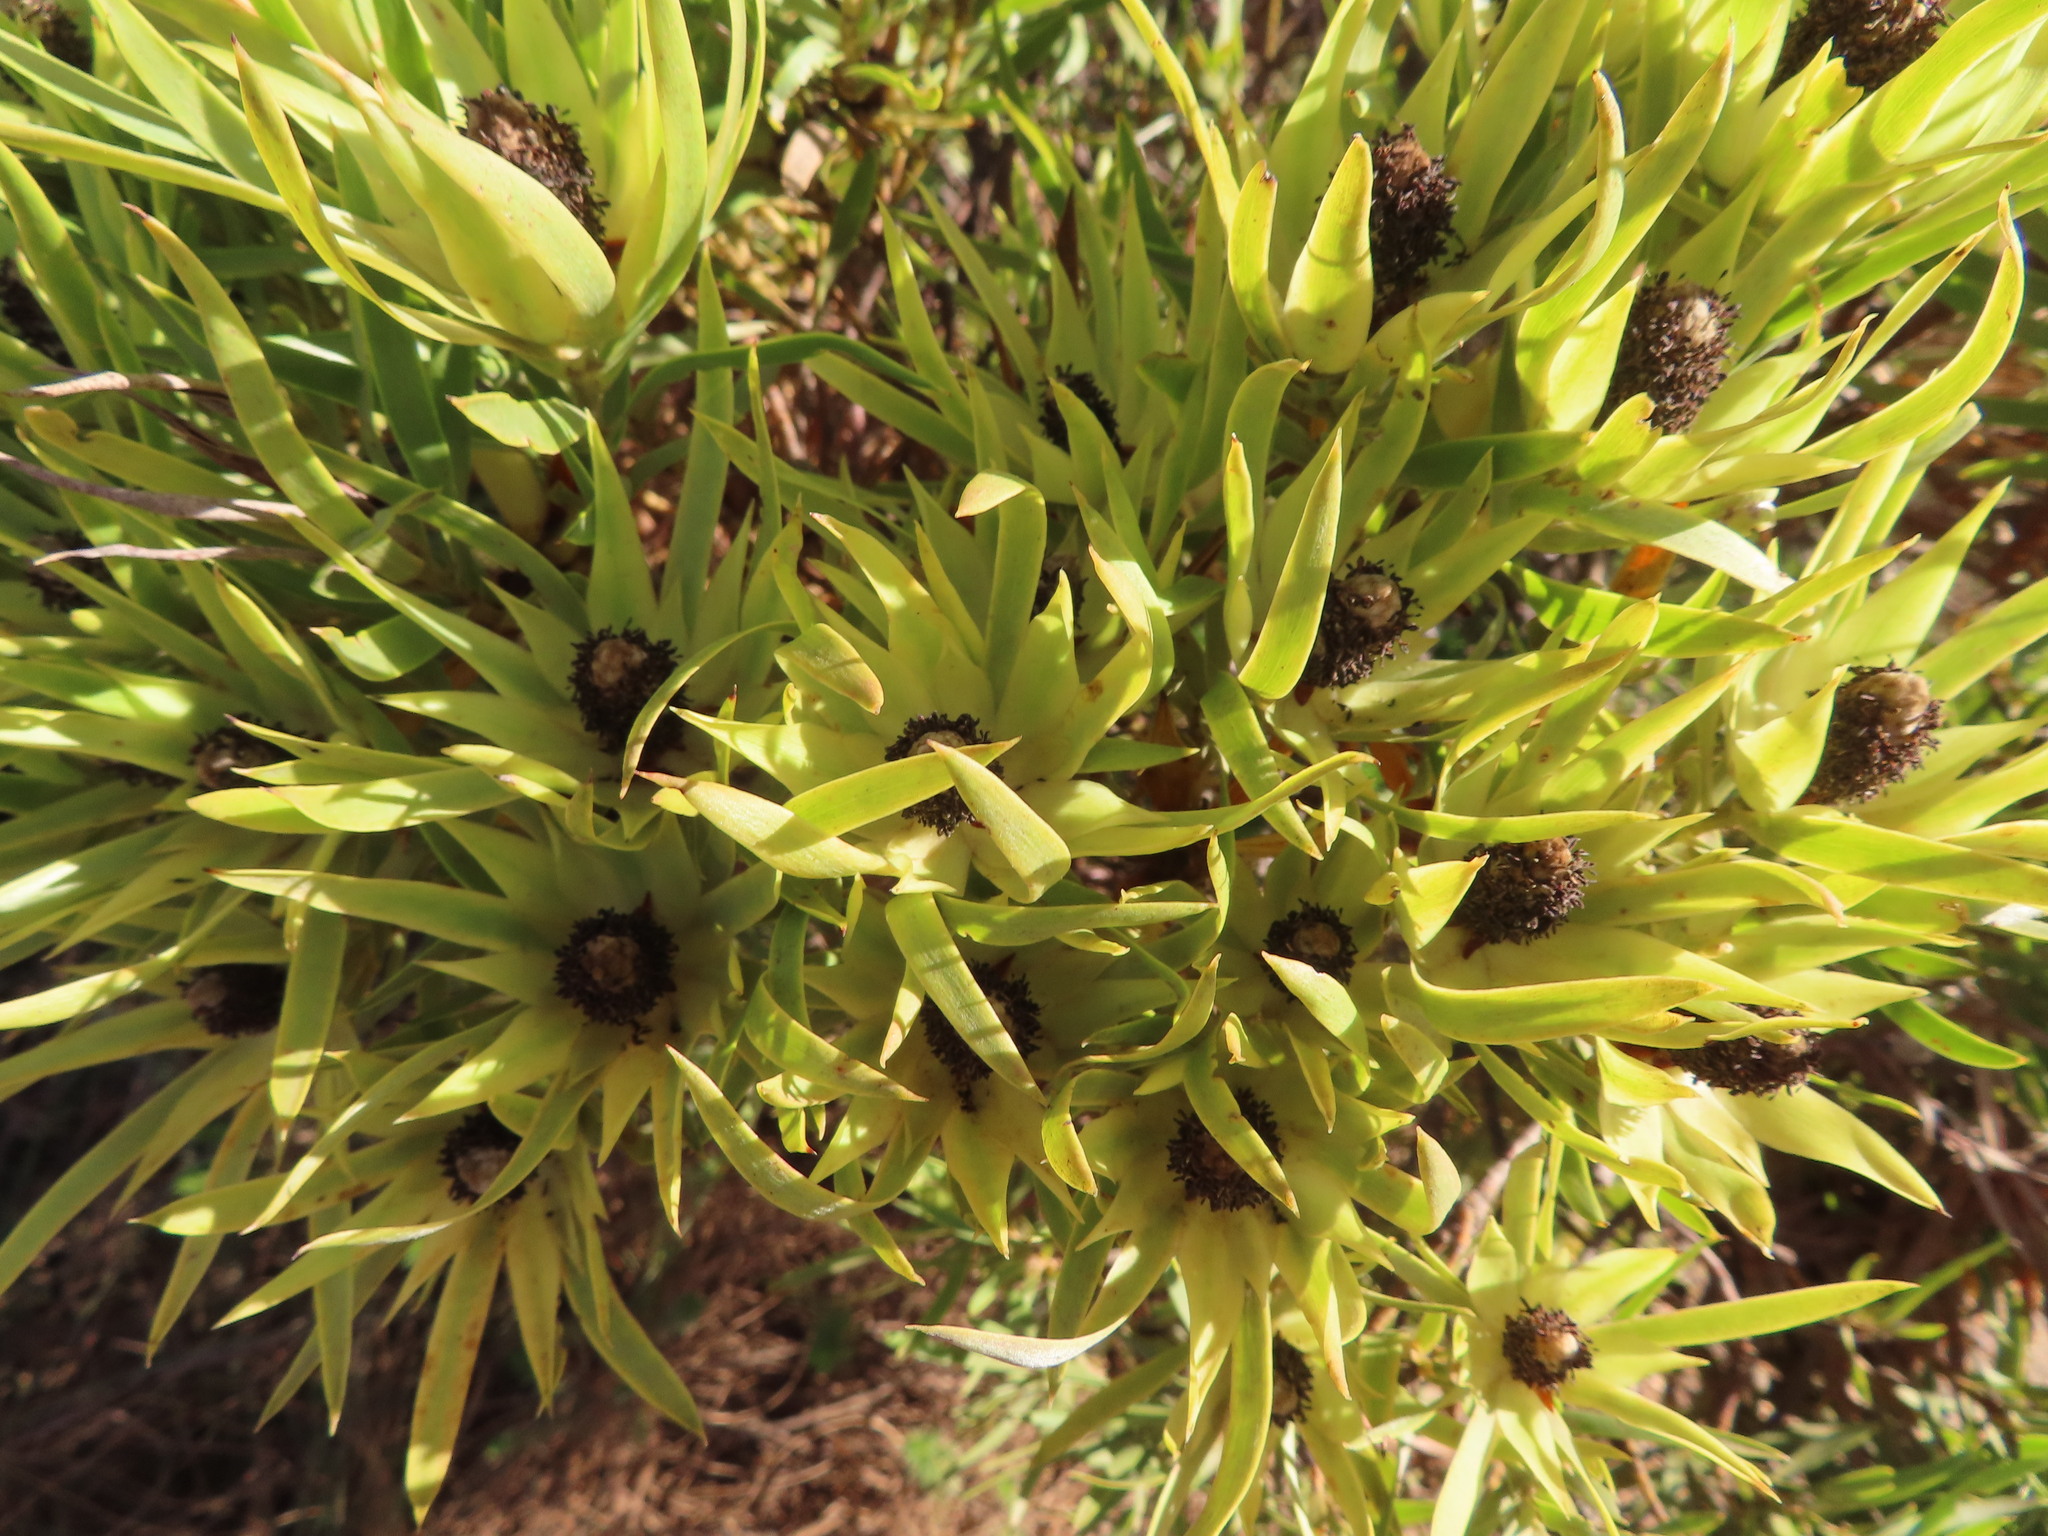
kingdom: Plantae
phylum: Tracheophyta
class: Magnoliopsida
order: Proteales
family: Proteaceae
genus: Leucadendron
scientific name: Leucadendron salignum
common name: Common sunshine conebush
